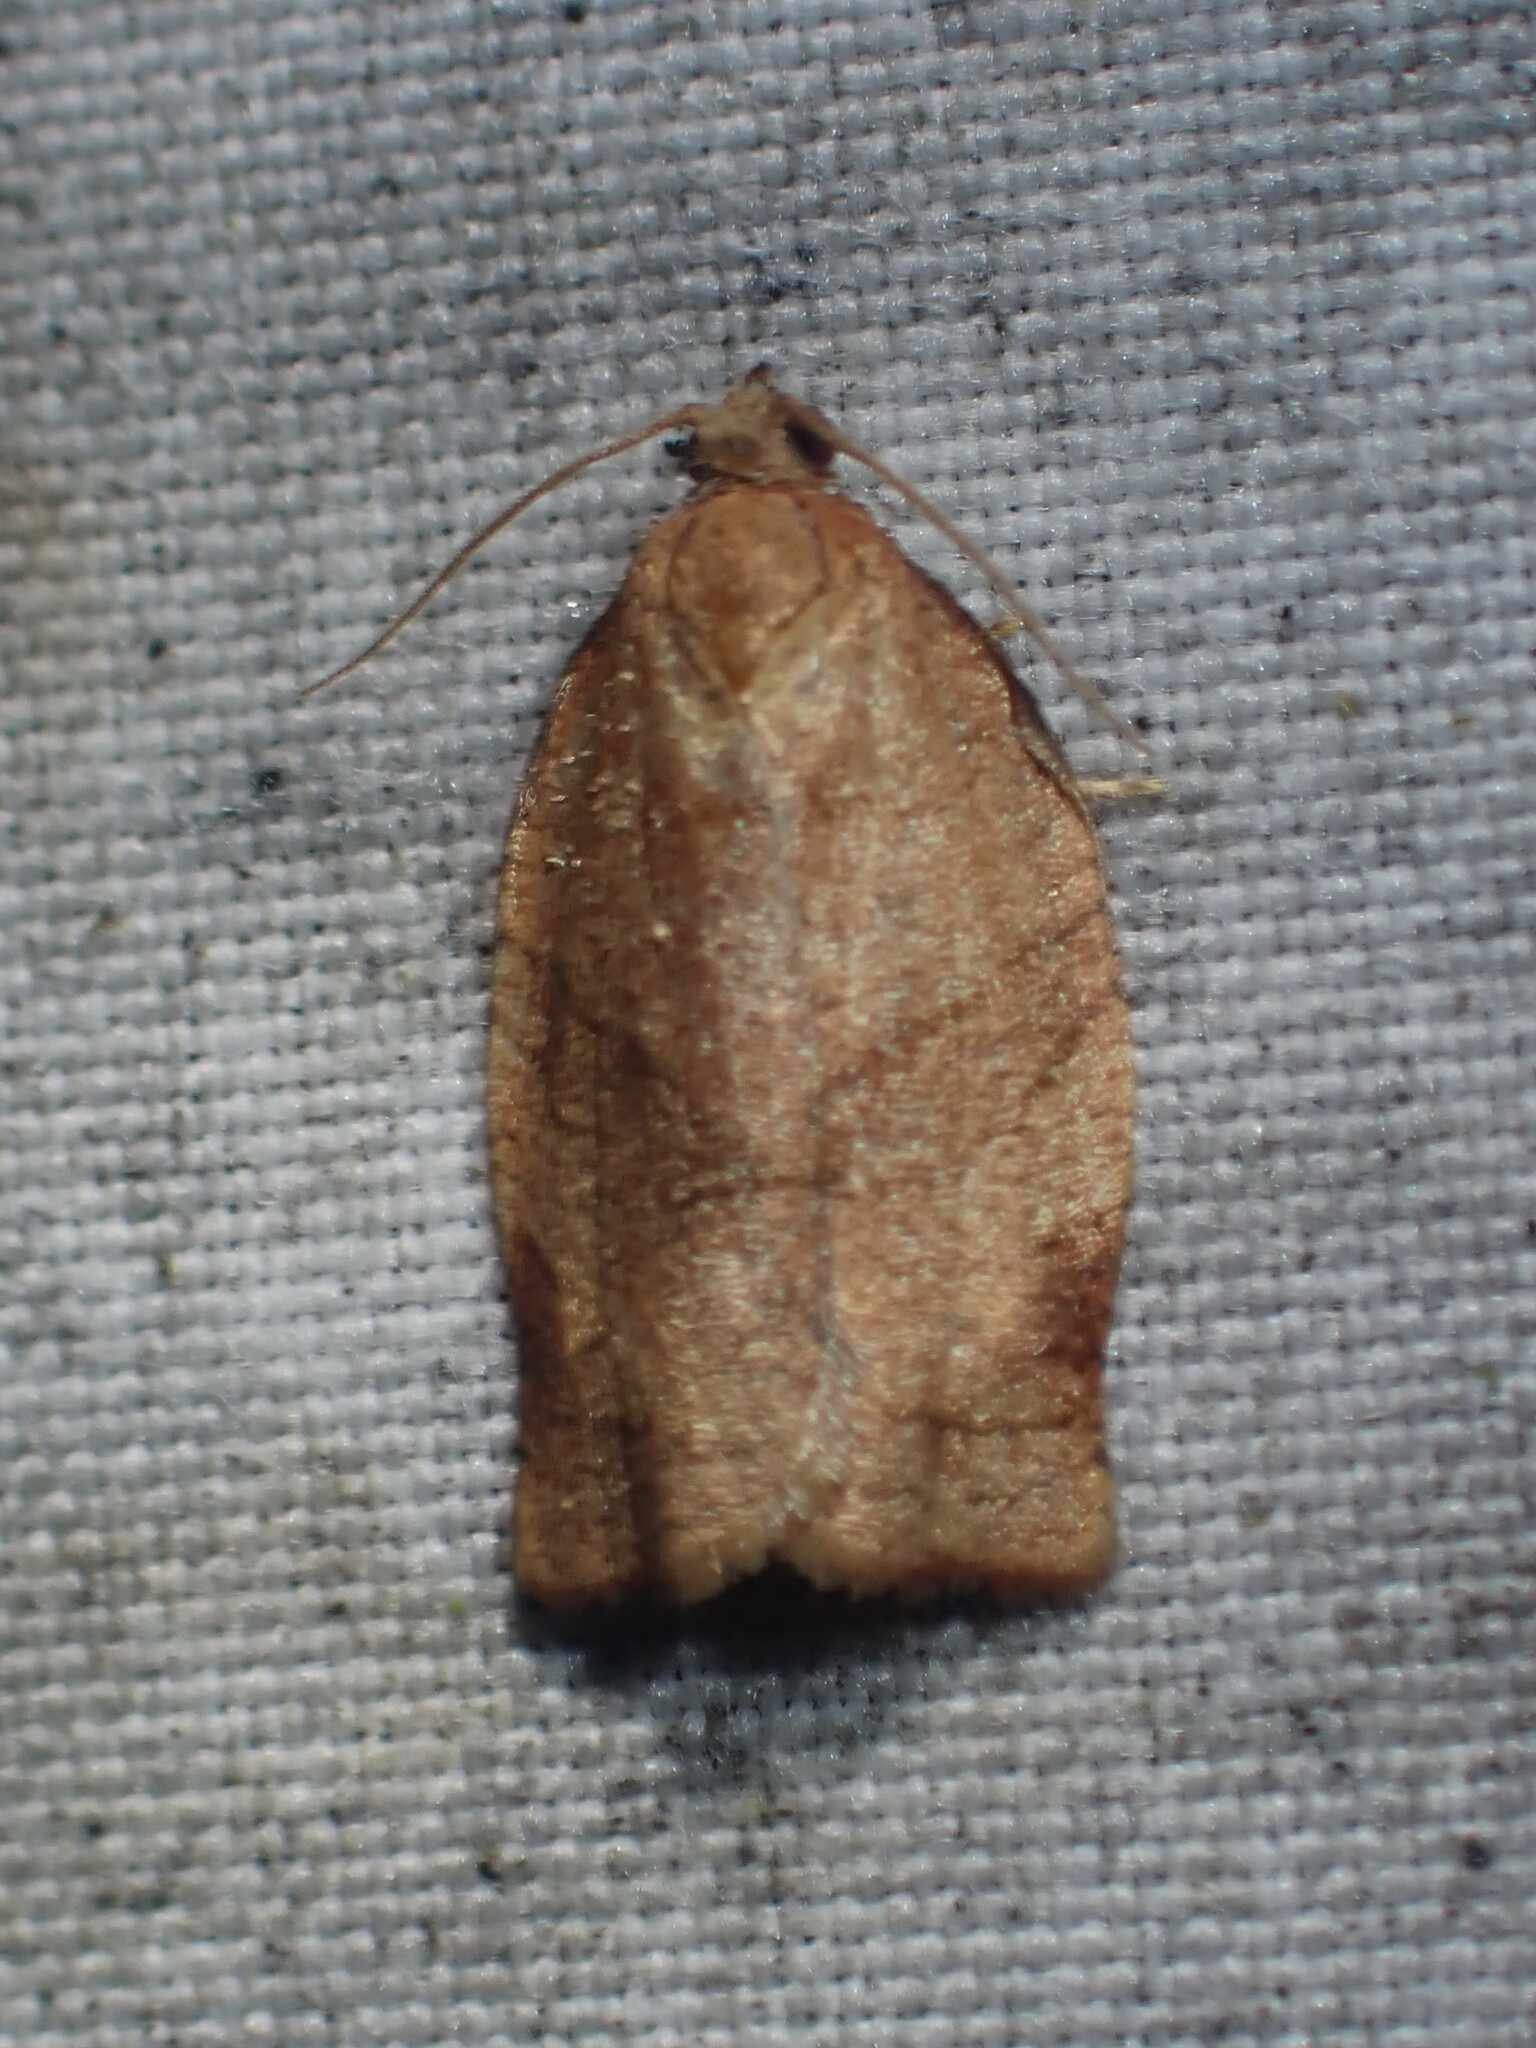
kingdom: Animalia
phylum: Arthropoda
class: Insecta
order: Lepidoptera
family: Tortricidae
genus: Choristoneura
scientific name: Choristoneura rosaceana
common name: Oblique-banded leafroller moth
